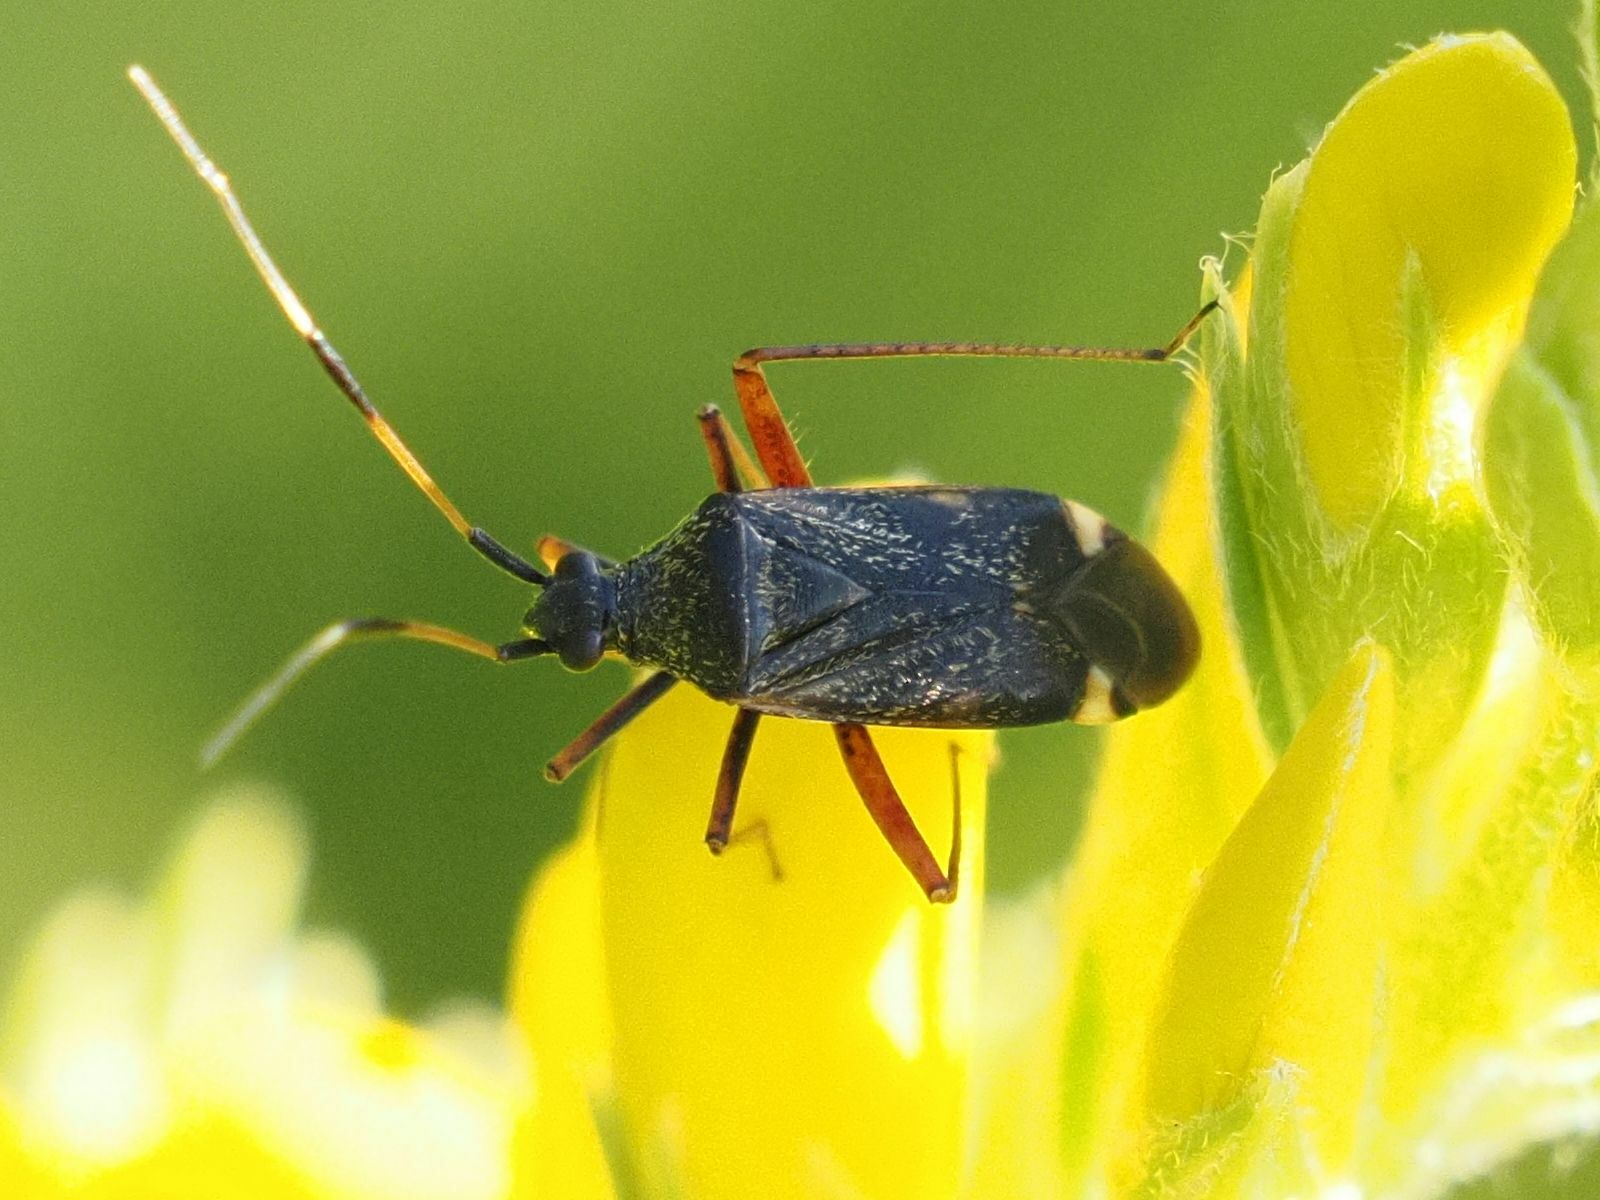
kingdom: Animalia
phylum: Arthropoda
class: Insecta
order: Hemiptera
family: Miridae
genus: Closterotomus
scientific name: Closterotomus biclavatus
